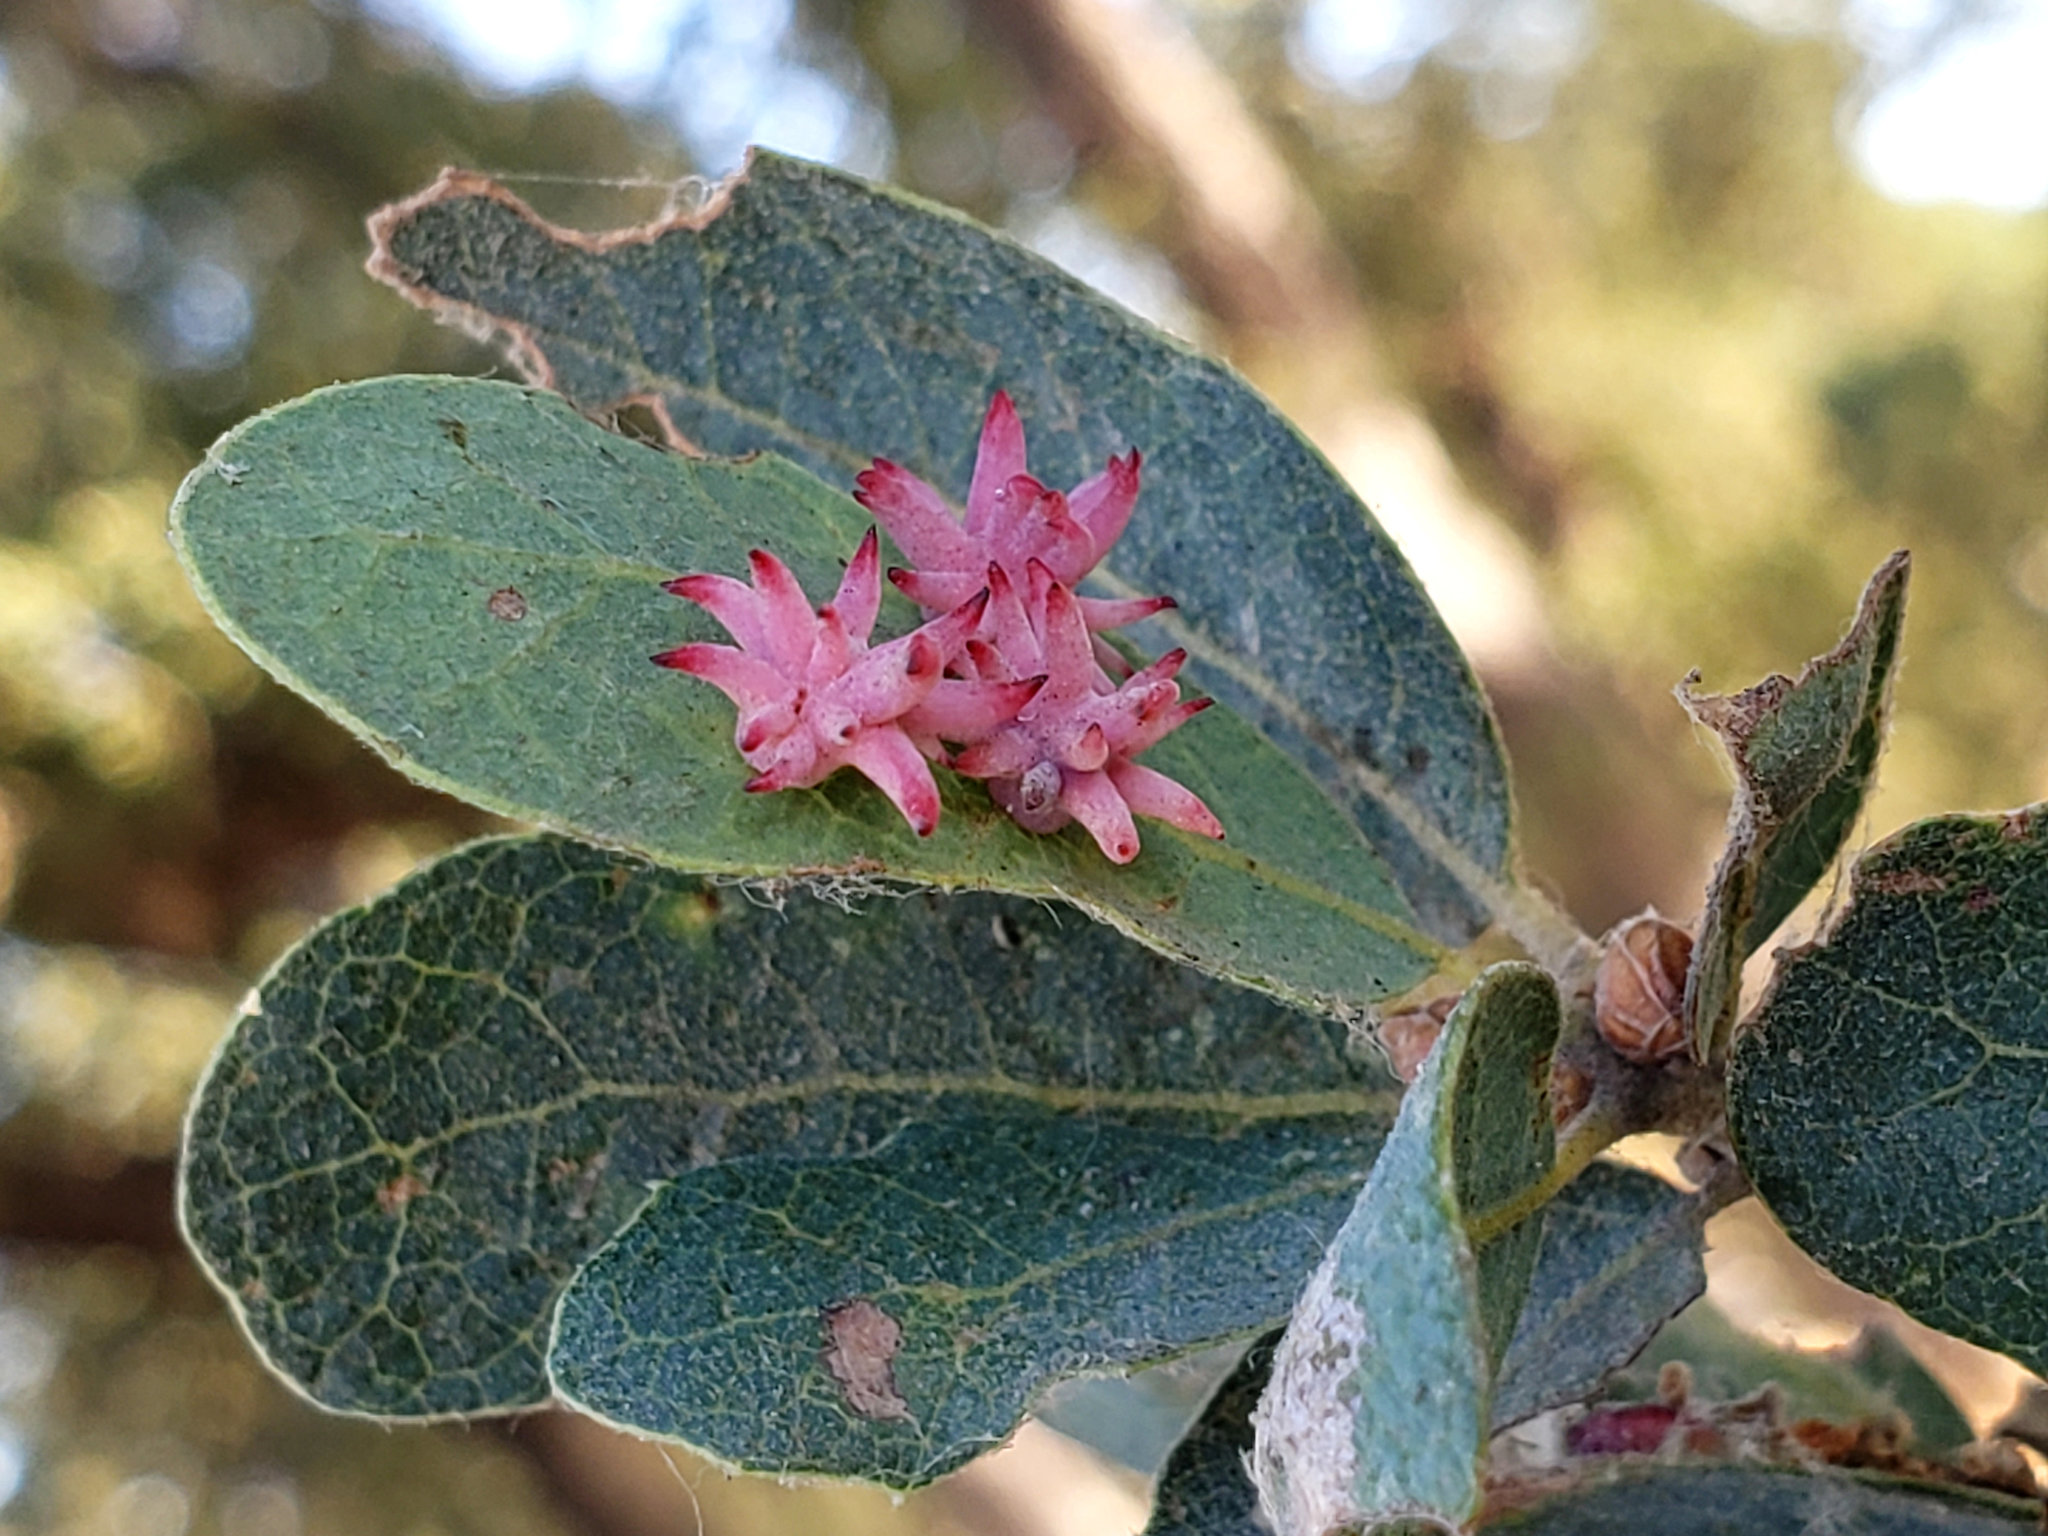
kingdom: Animalia
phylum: Arthropoda
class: Insecta
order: Hymenoptera
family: Cynipidae
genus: Cynips
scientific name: Cynips
